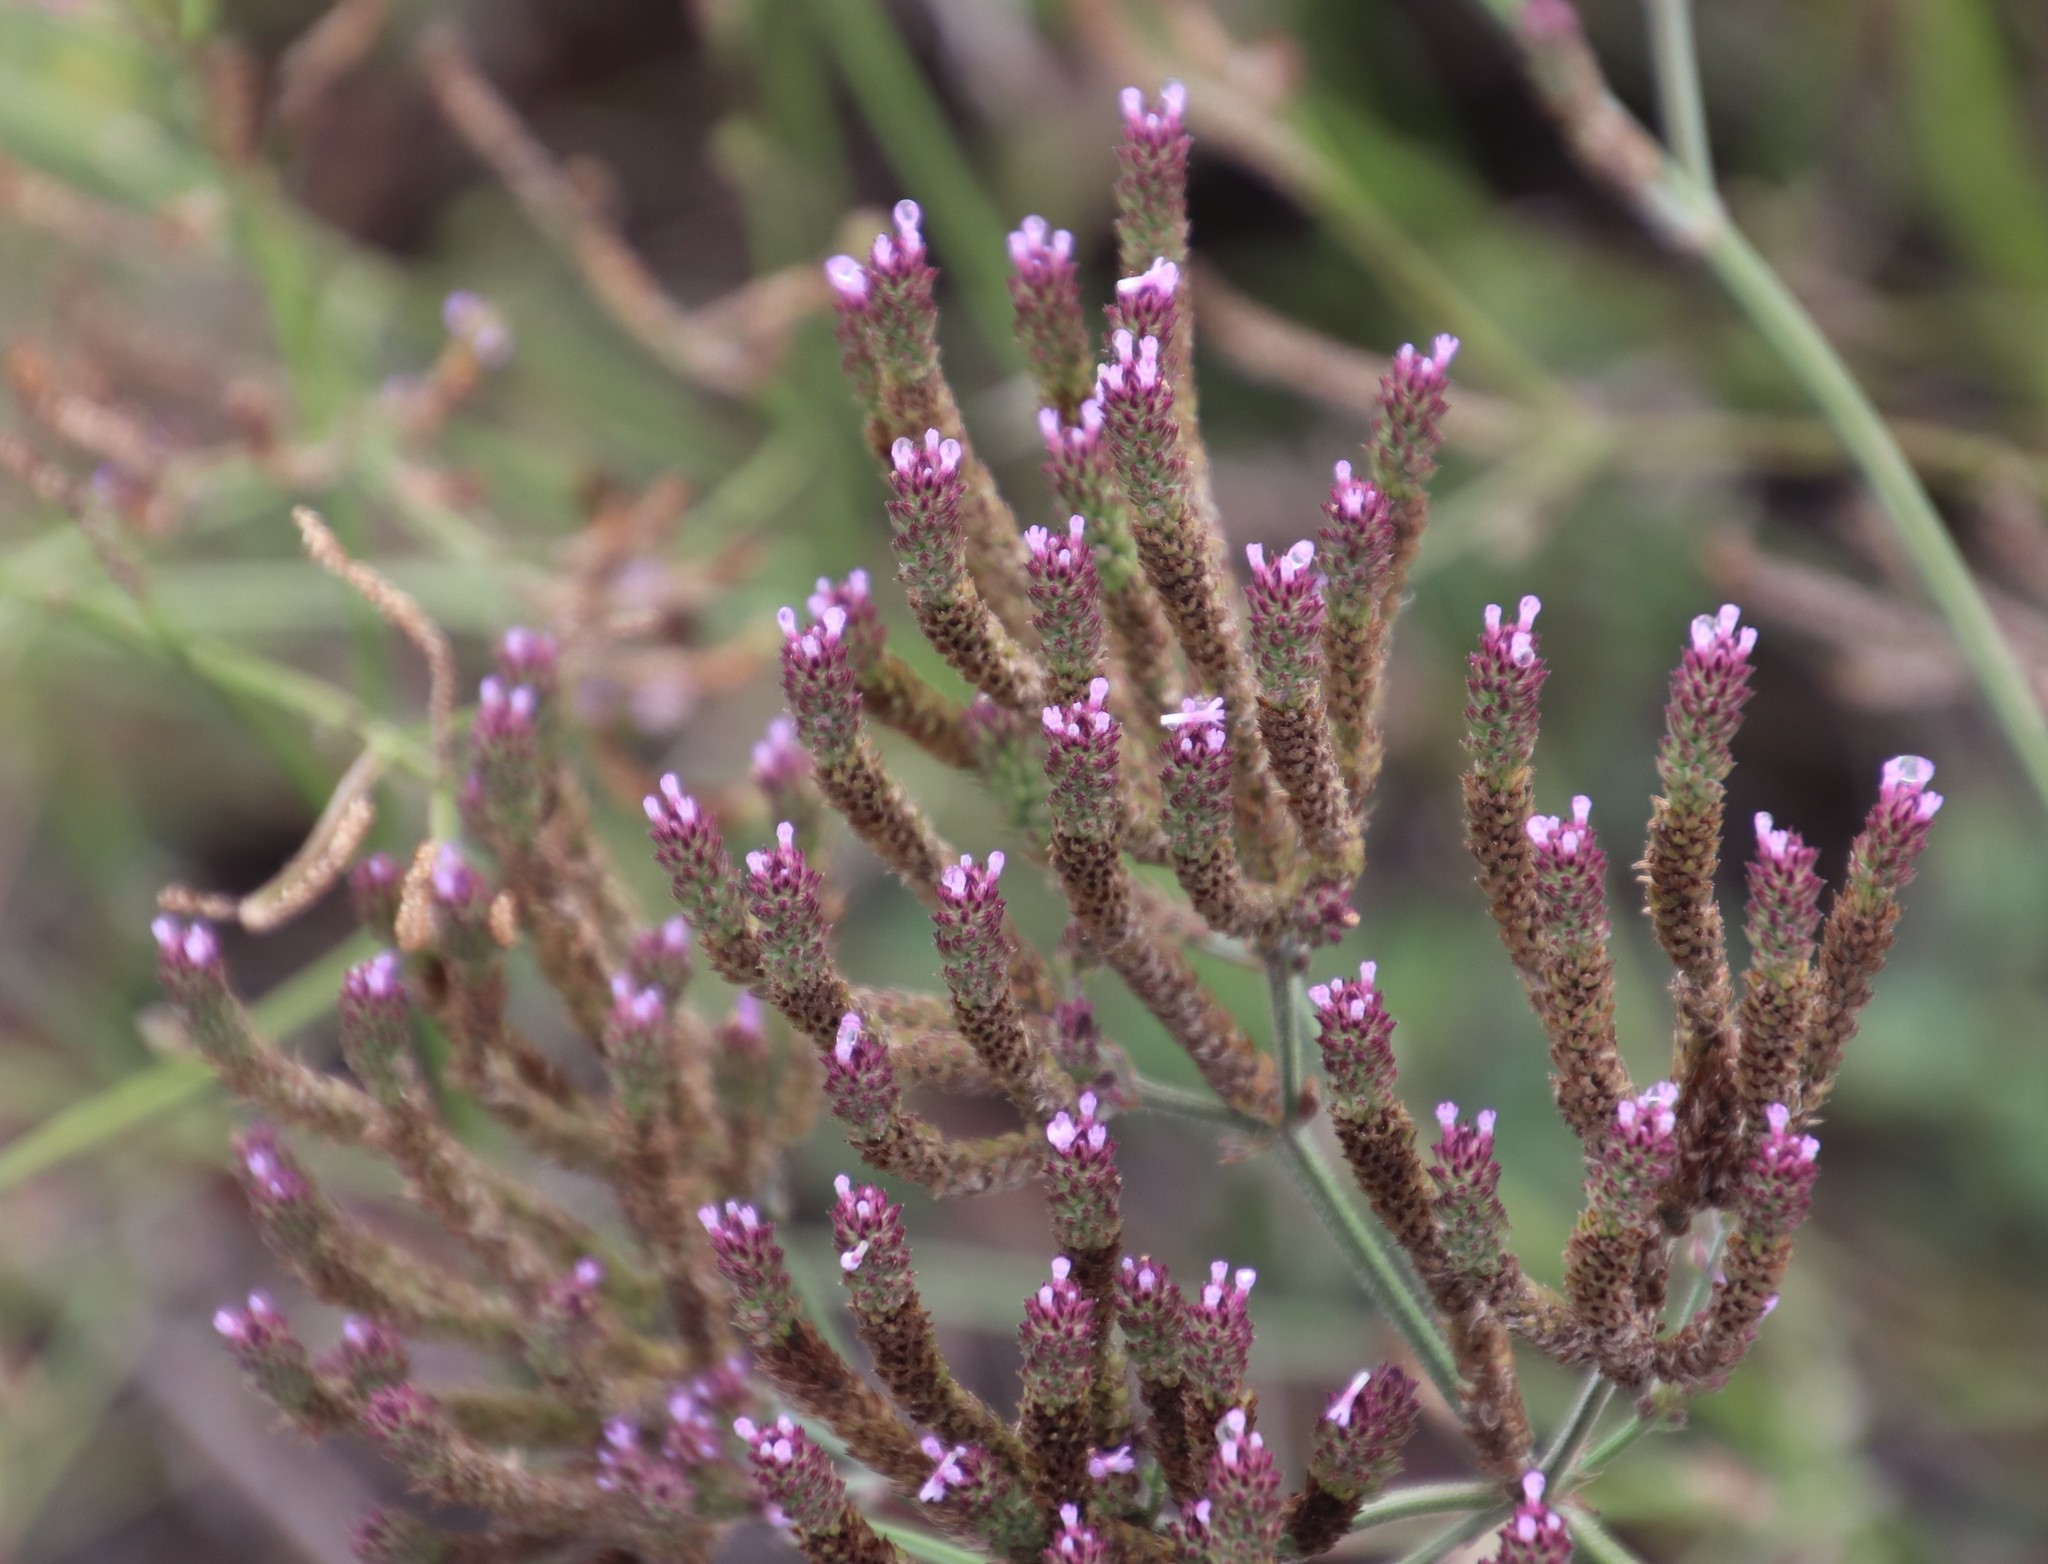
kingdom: Plantae
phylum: Tracheophyta
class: Magnoliopsida
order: Lamiales
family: Verbenaceae
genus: Verbena
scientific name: Verbena bonariensis
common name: Purpletop vervain
